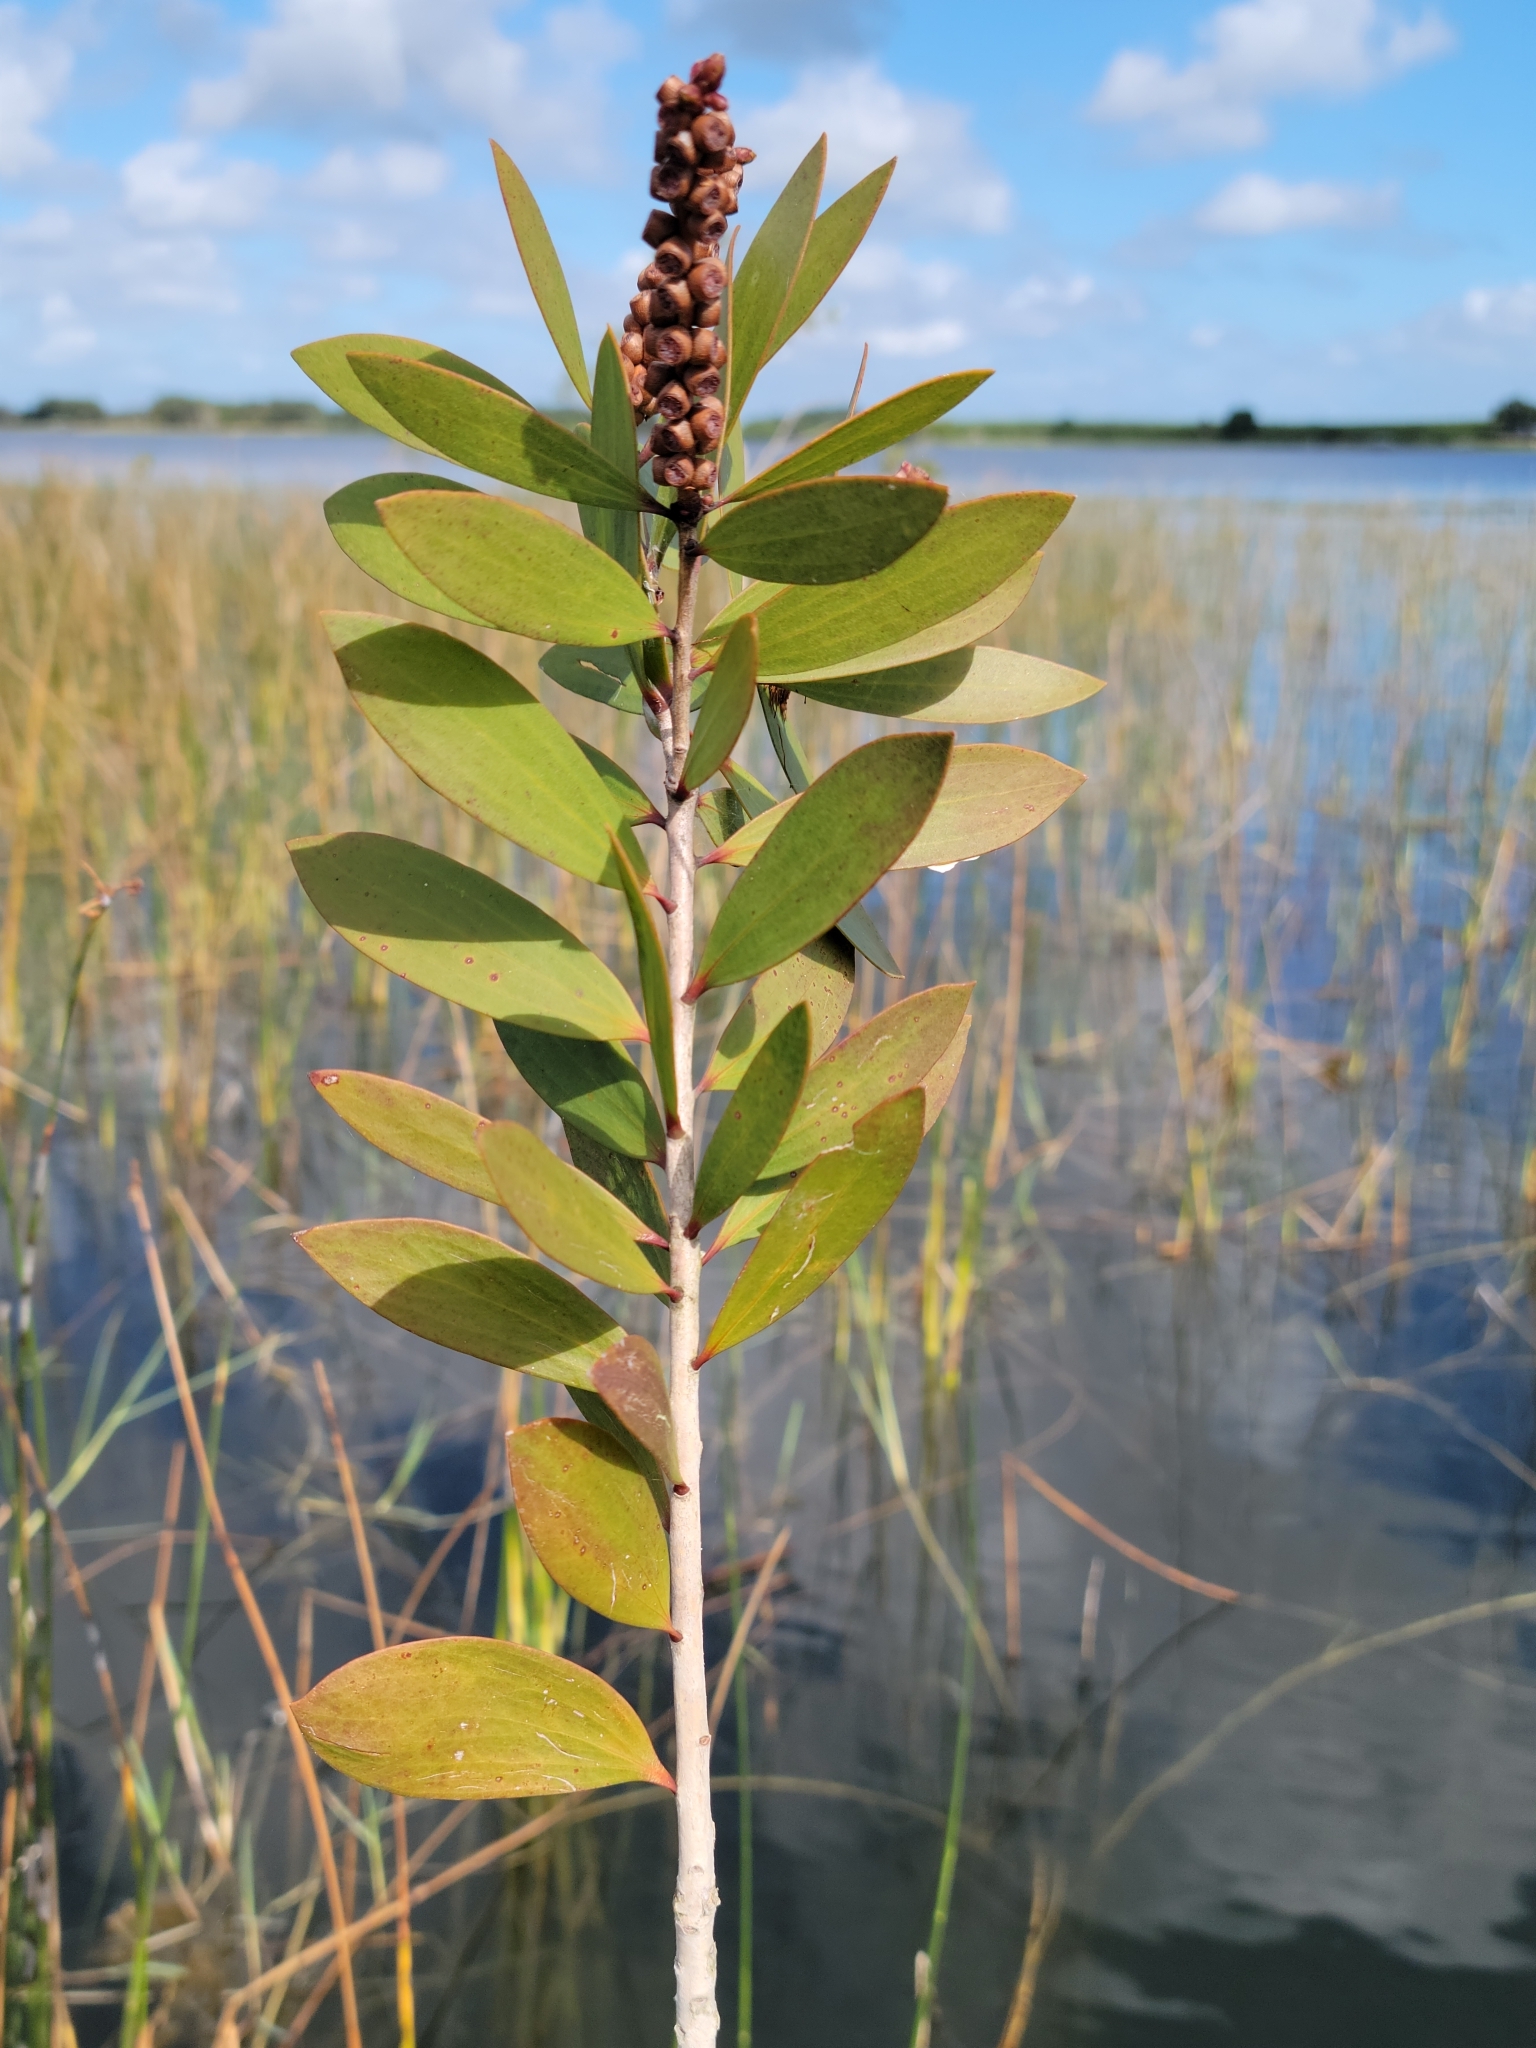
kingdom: Plantae
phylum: Tracheophyta
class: Magnoliopsida
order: Myrtales
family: Myrtaceae
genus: Melaleuca
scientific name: Melaleuca quinquenervia
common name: Punktree
